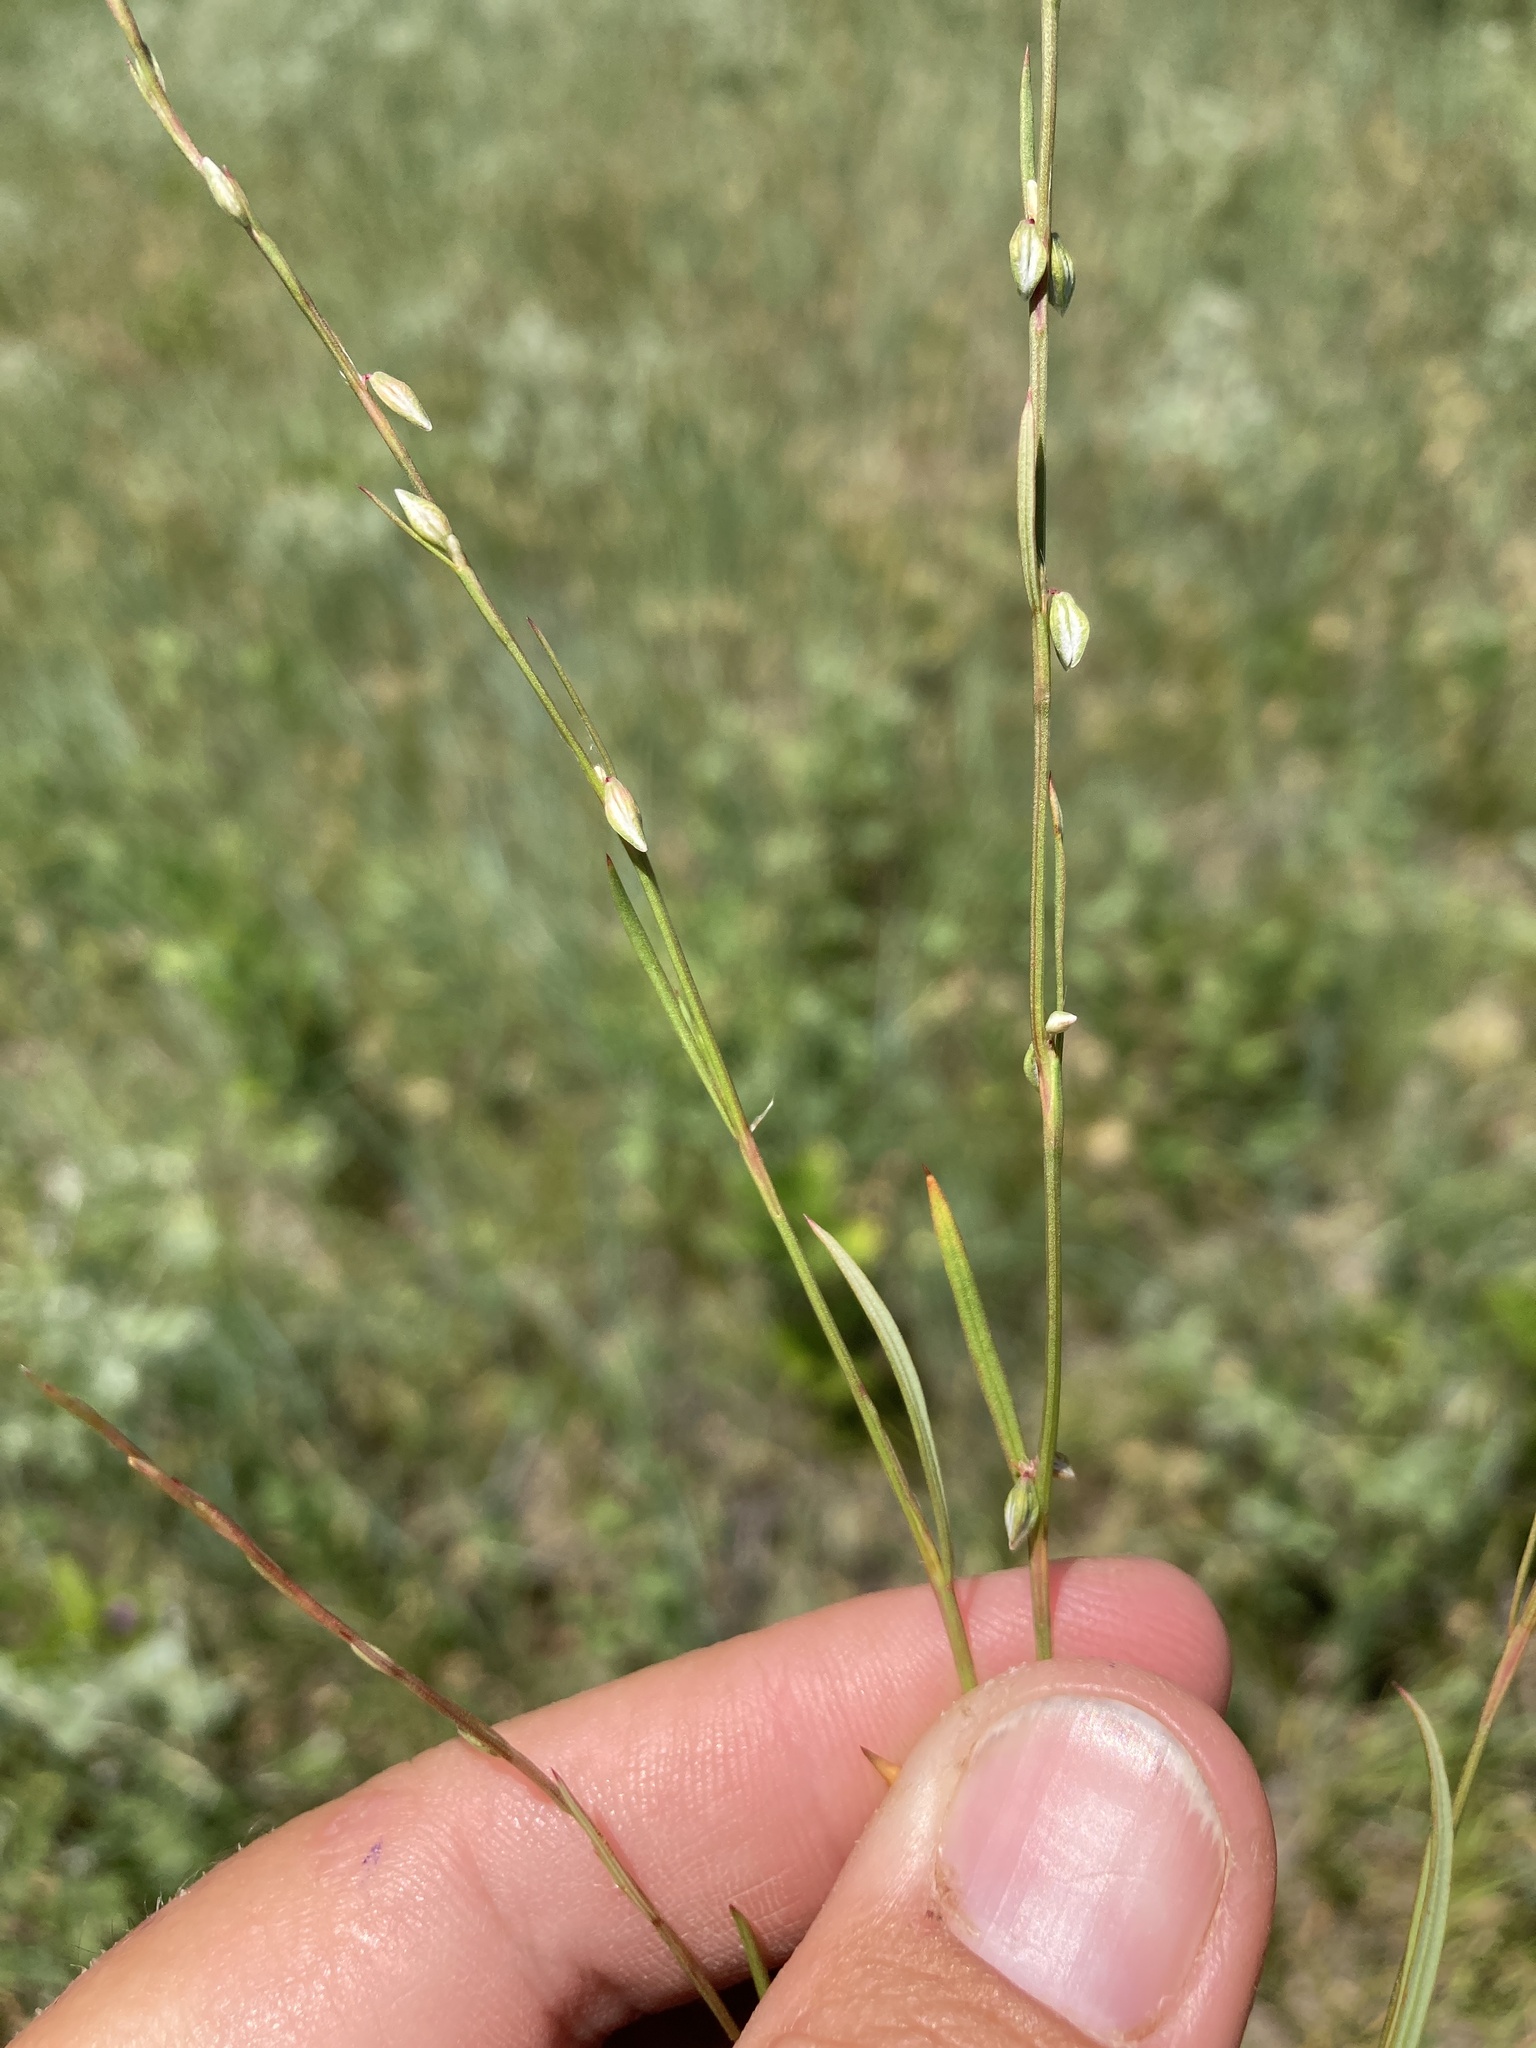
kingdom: Plantae
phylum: Tracheophyta
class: Magnoliopsida
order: Caryophyllales
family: Polygonaceae
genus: Polygonum
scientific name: Polygonum douglasii
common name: Douglas' knotweed
